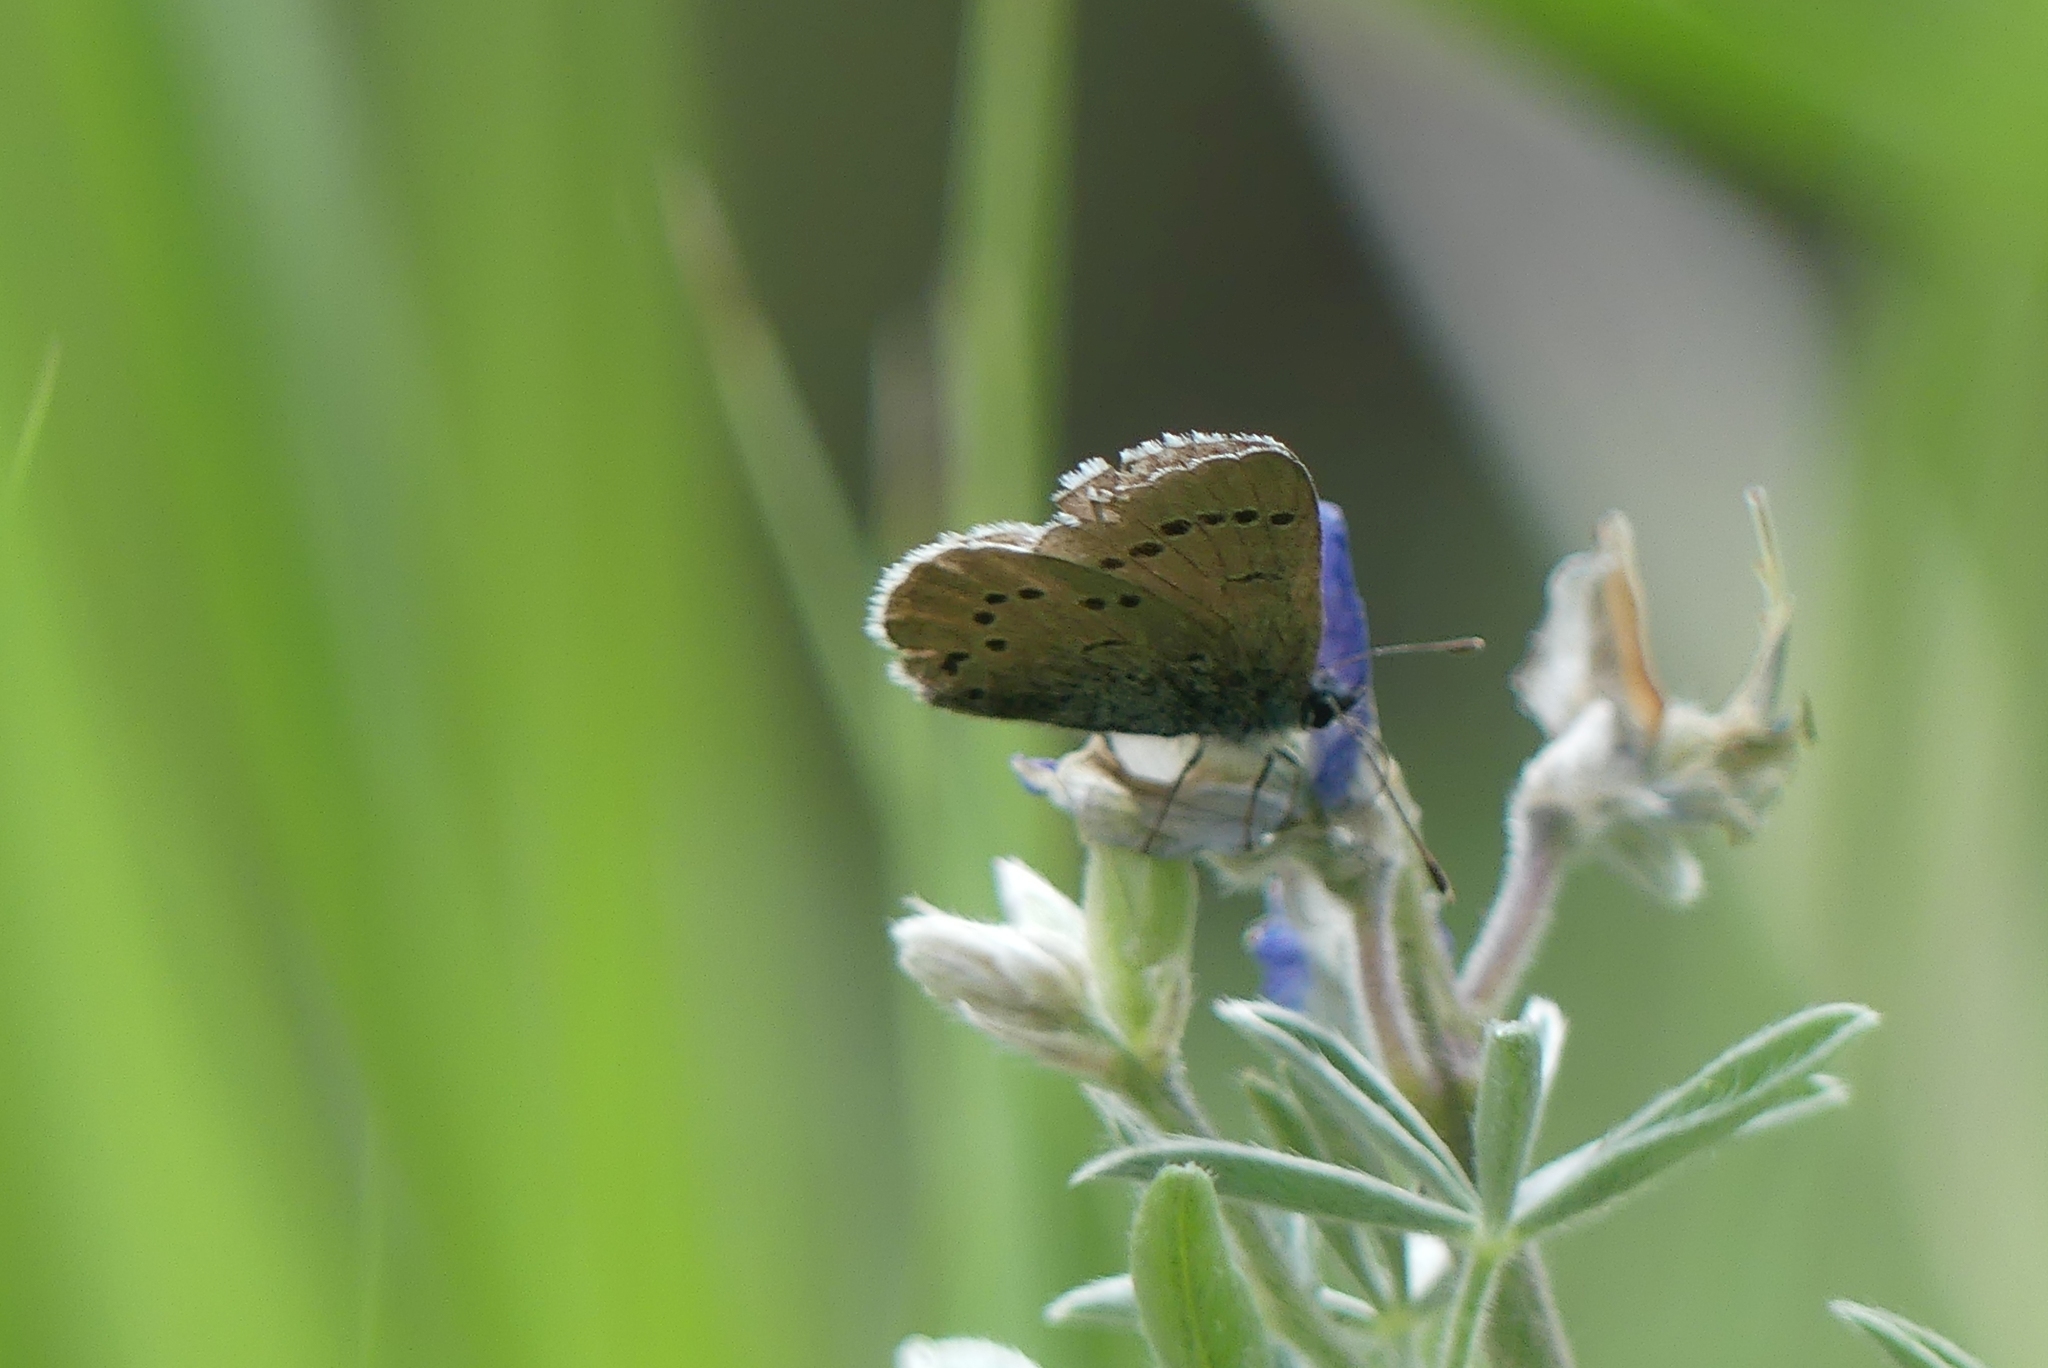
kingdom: Animalia
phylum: Arthropoda
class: Insecta
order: Lepidoptera
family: Lycaenidae
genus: Glaucopsyche
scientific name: Glaucopsyche lygdamus
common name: Silvery blue
